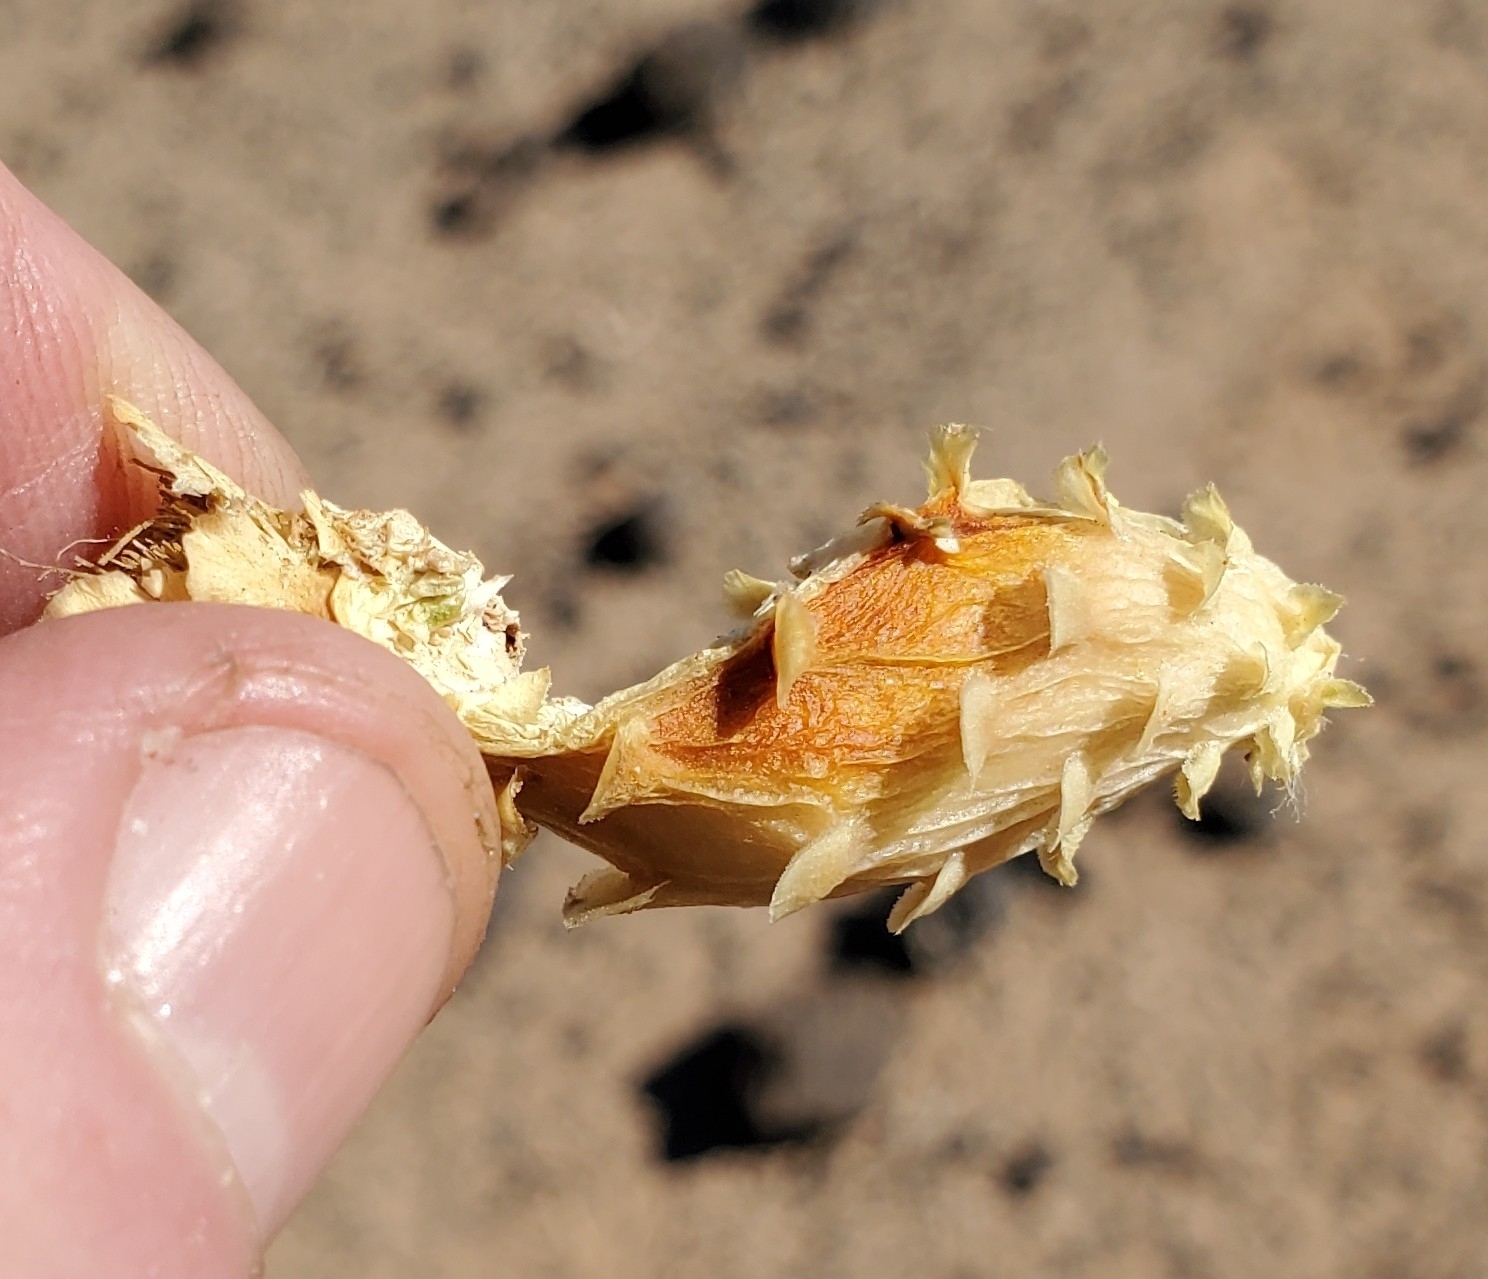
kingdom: Plantae
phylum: Tracheophyta
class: Magnoliopsida
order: Caryophyllales
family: Cactaceae
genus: Ferocactus
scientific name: Ferocactus cylindraceus
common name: California barrel cactus
